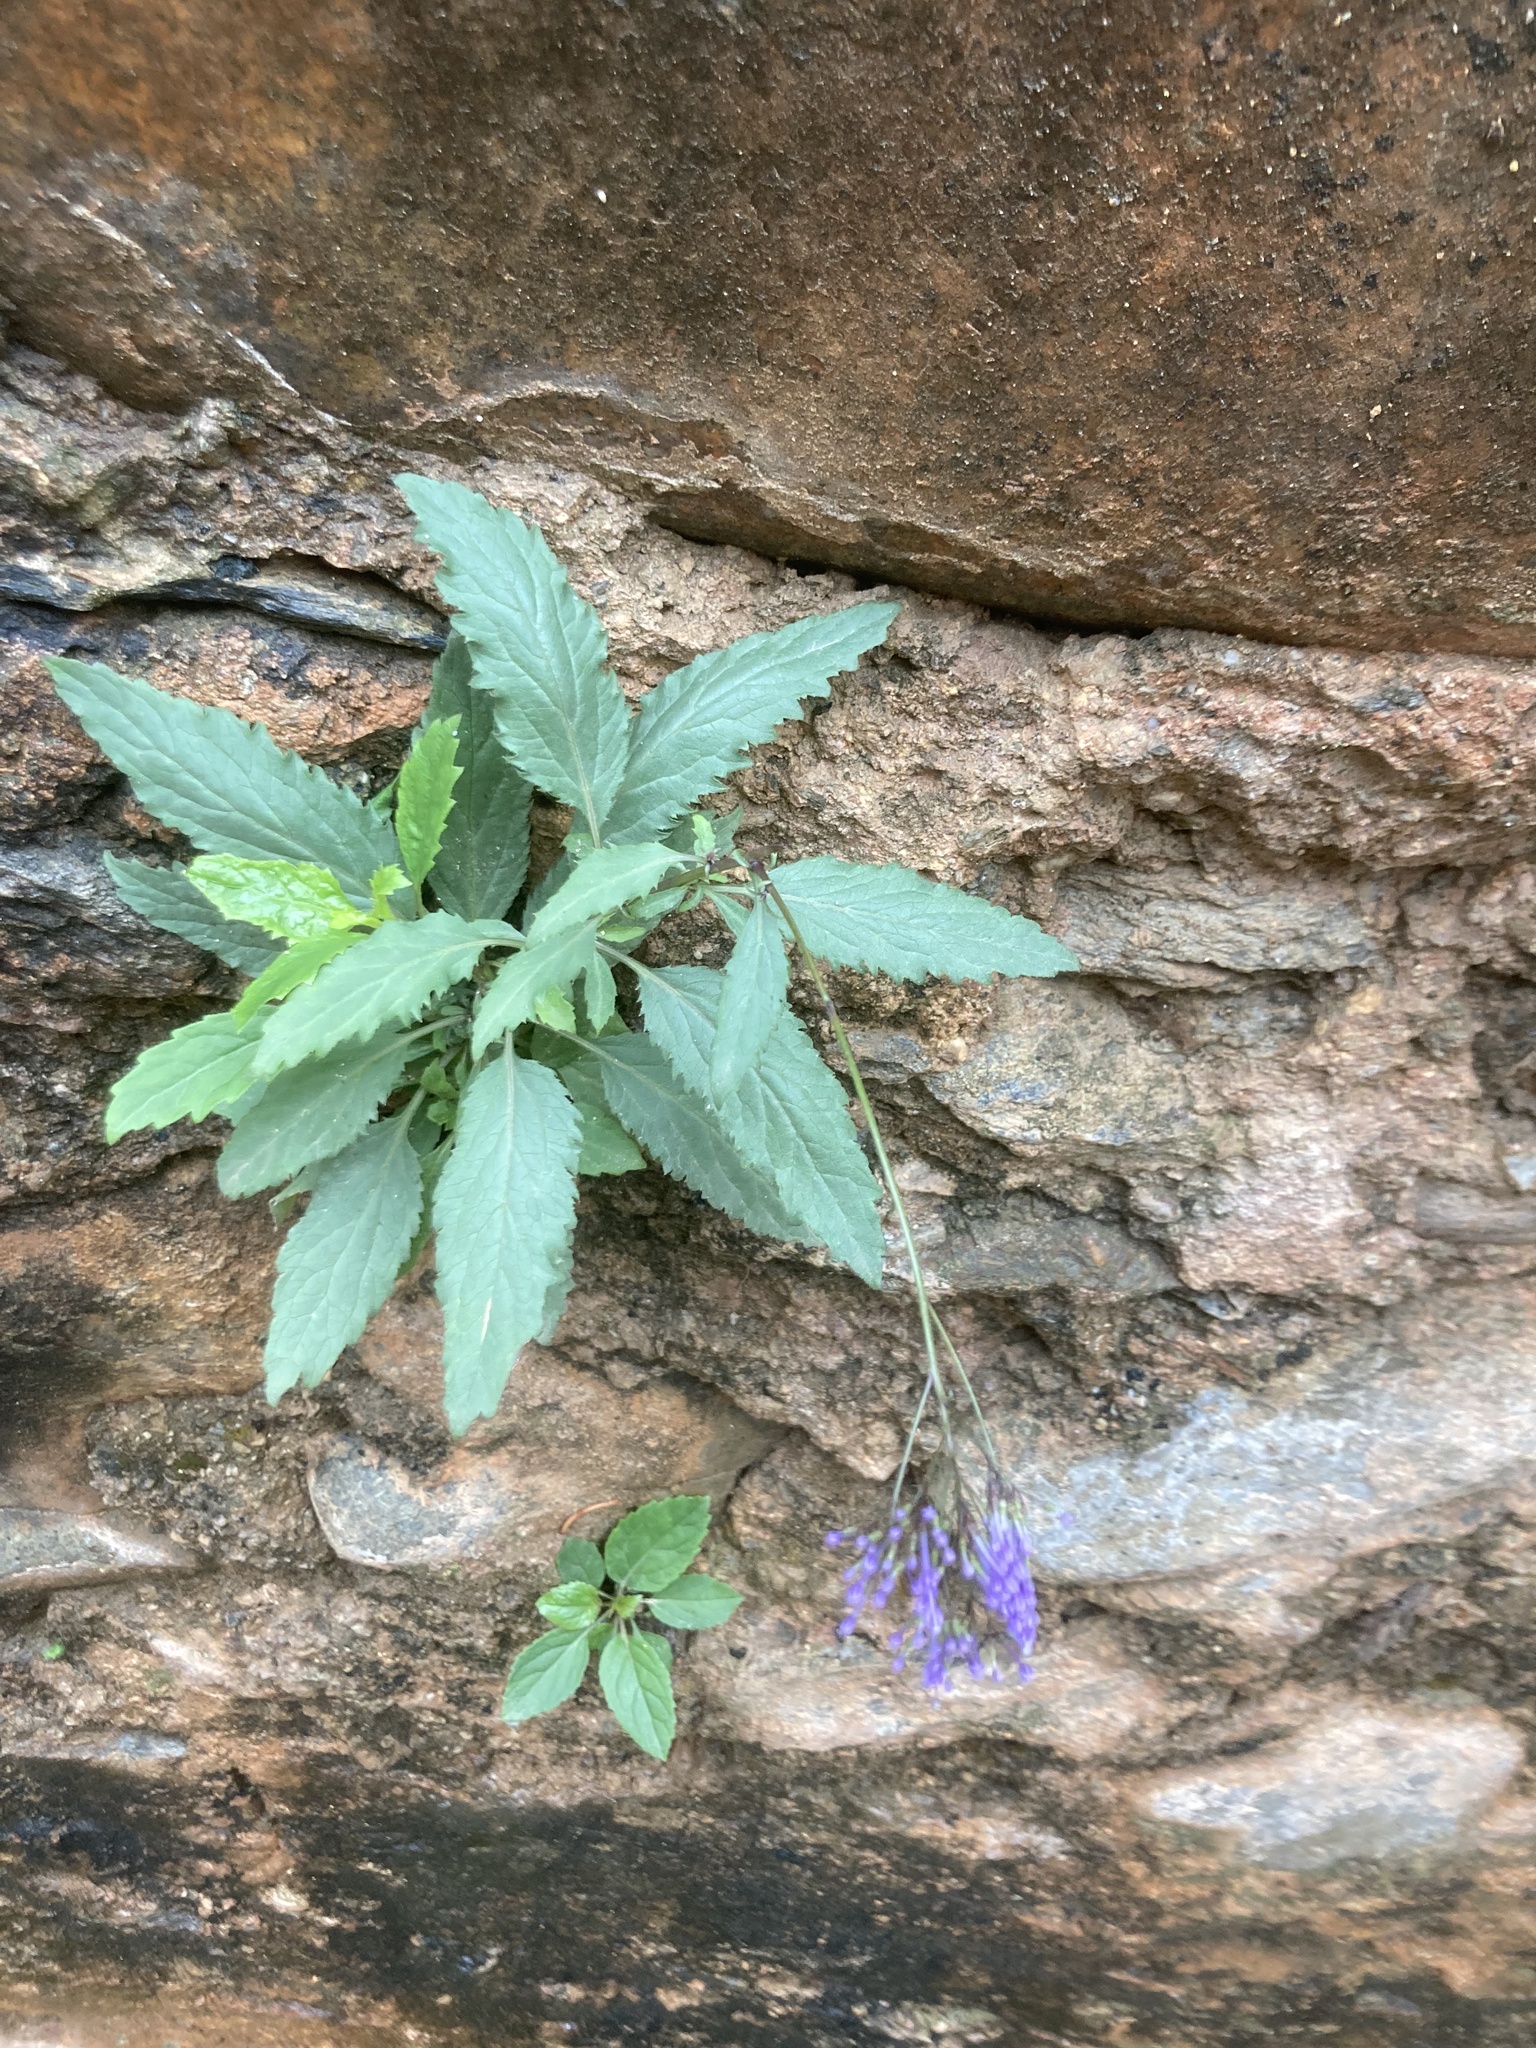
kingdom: Plantae
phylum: Tracheophyta
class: Magnoliopsida
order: Asterales
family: Campanulaceae
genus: Trachelium
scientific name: Trachelium caeruleum
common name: Throatwort
